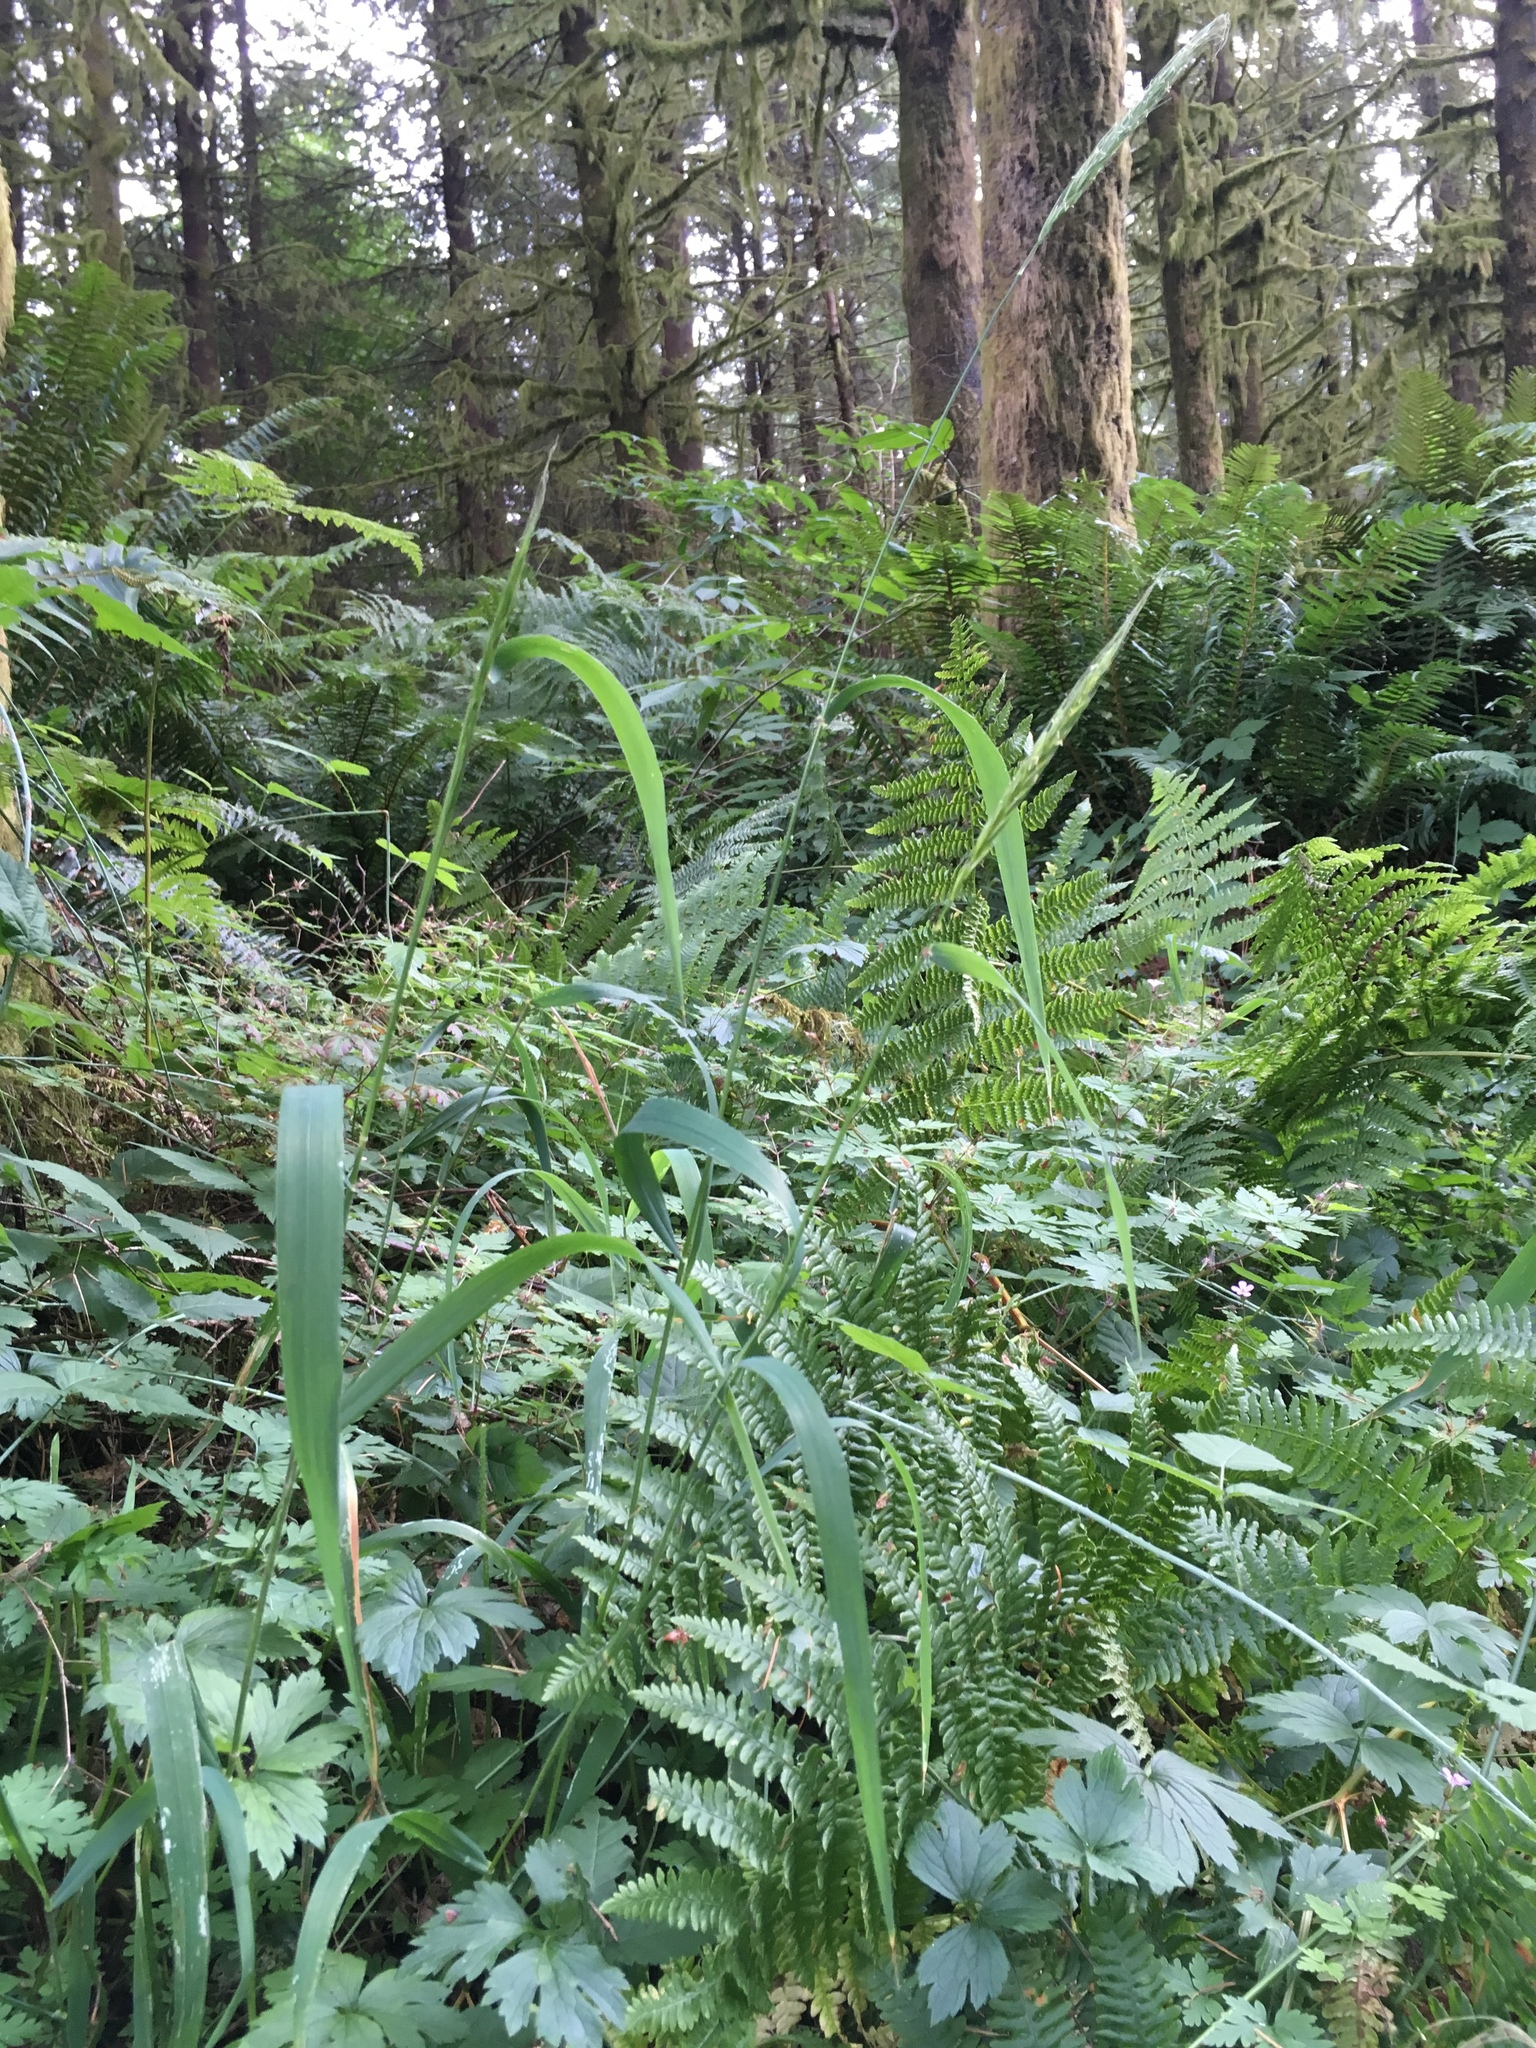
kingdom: Plantae
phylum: Tracheophyta
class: Liliopsida
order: Poales
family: Poaceae
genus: Elymus
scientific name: Elymus glaucus
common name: Blue wild rye
